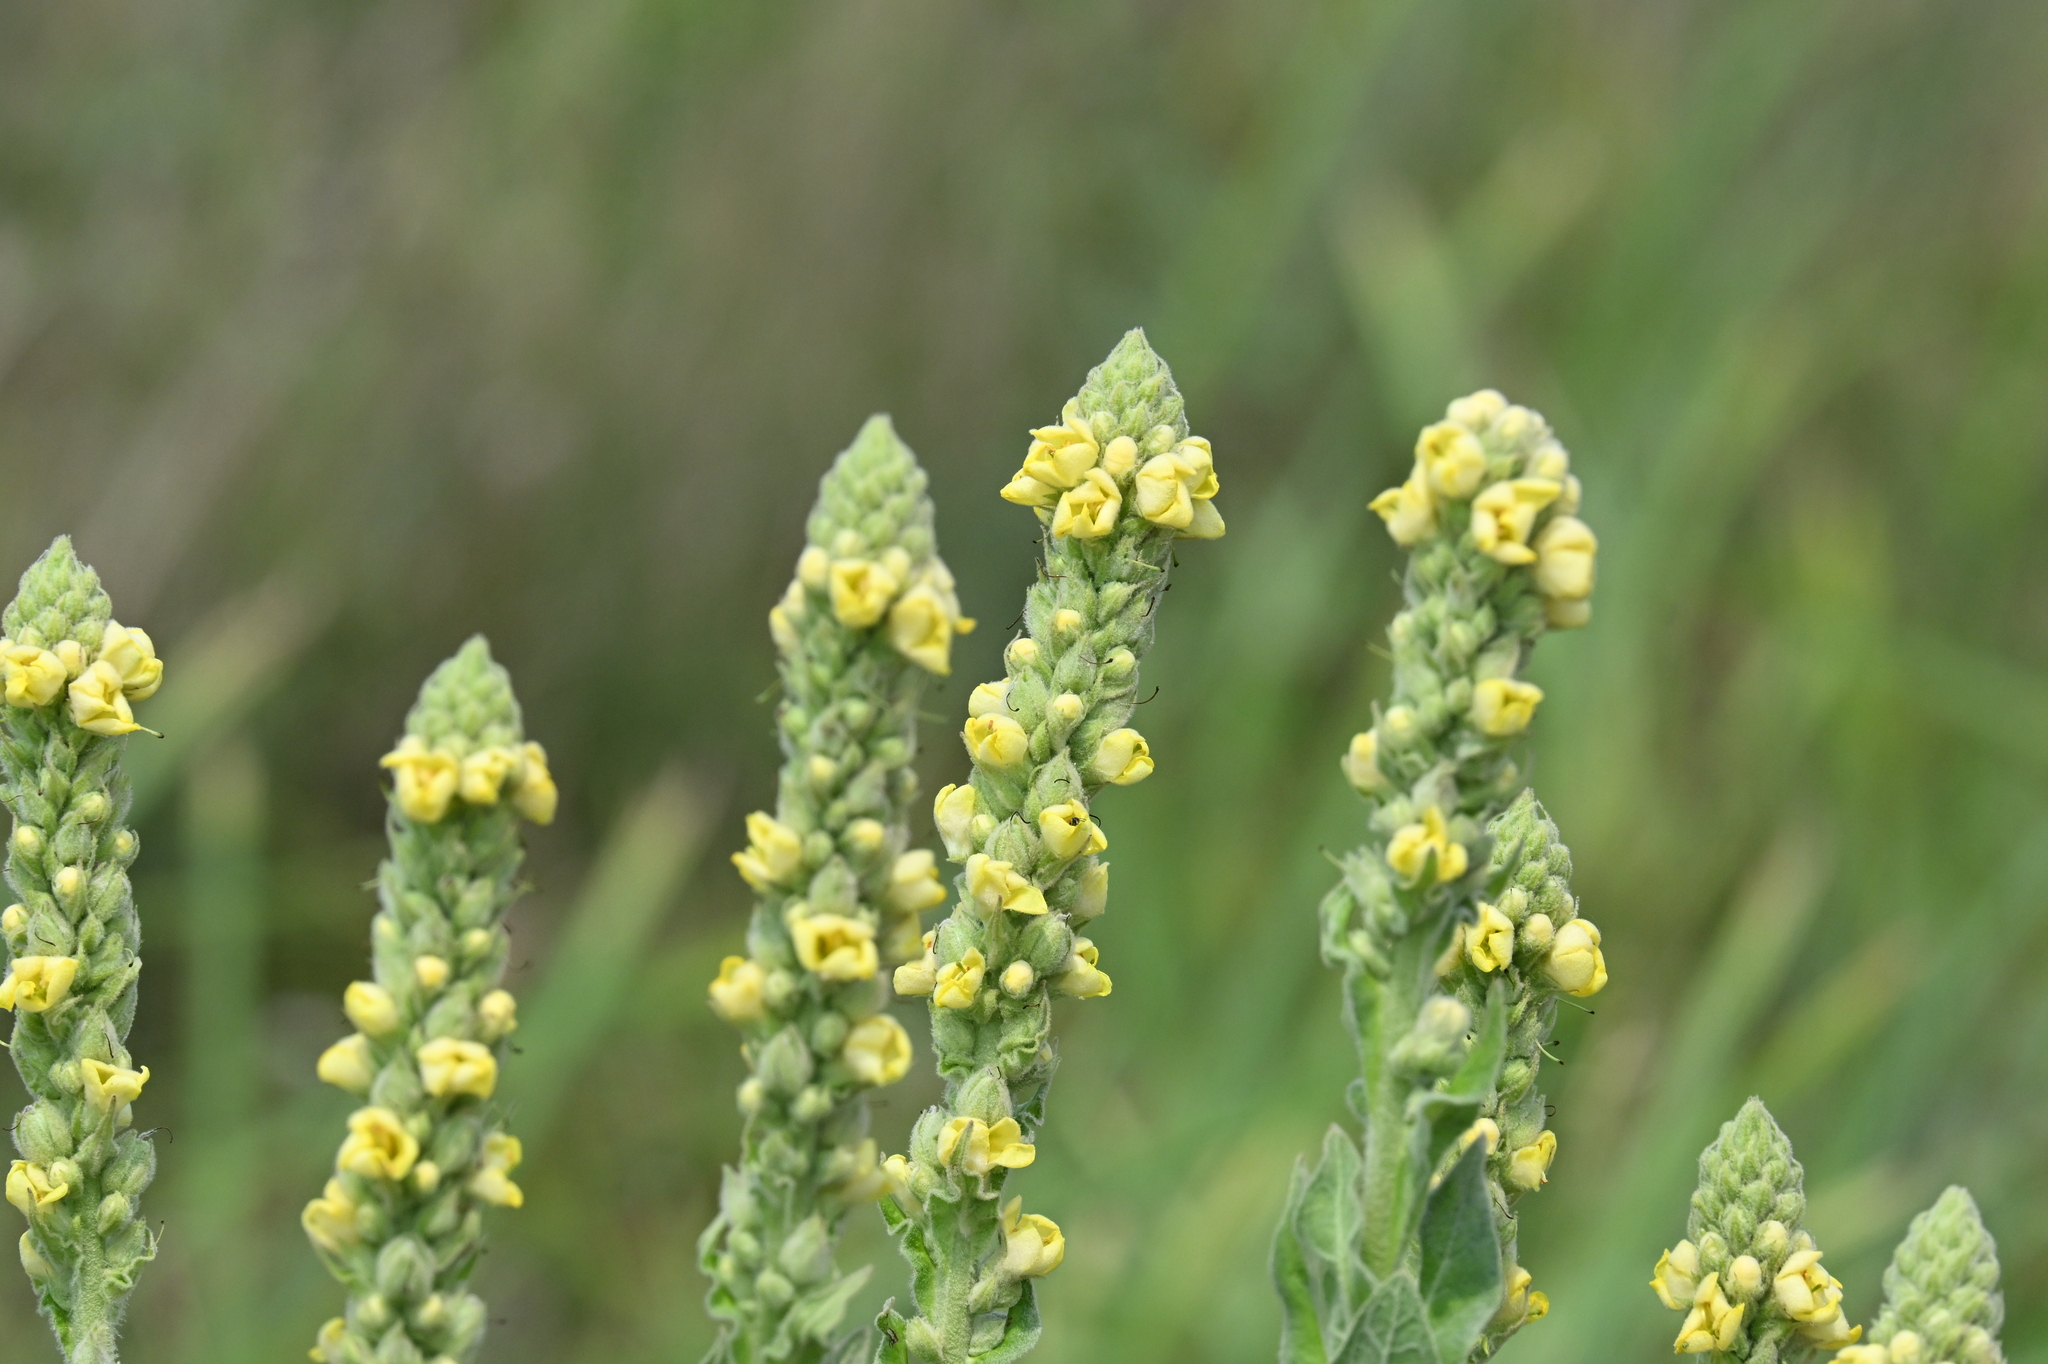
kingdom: Plantae
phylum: Tracheophyta
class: Magnoliopsida
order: Lamiales
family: Scrophulariaceae
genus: Verbascum
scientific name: Verbascum thapsus
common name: Common mullein
